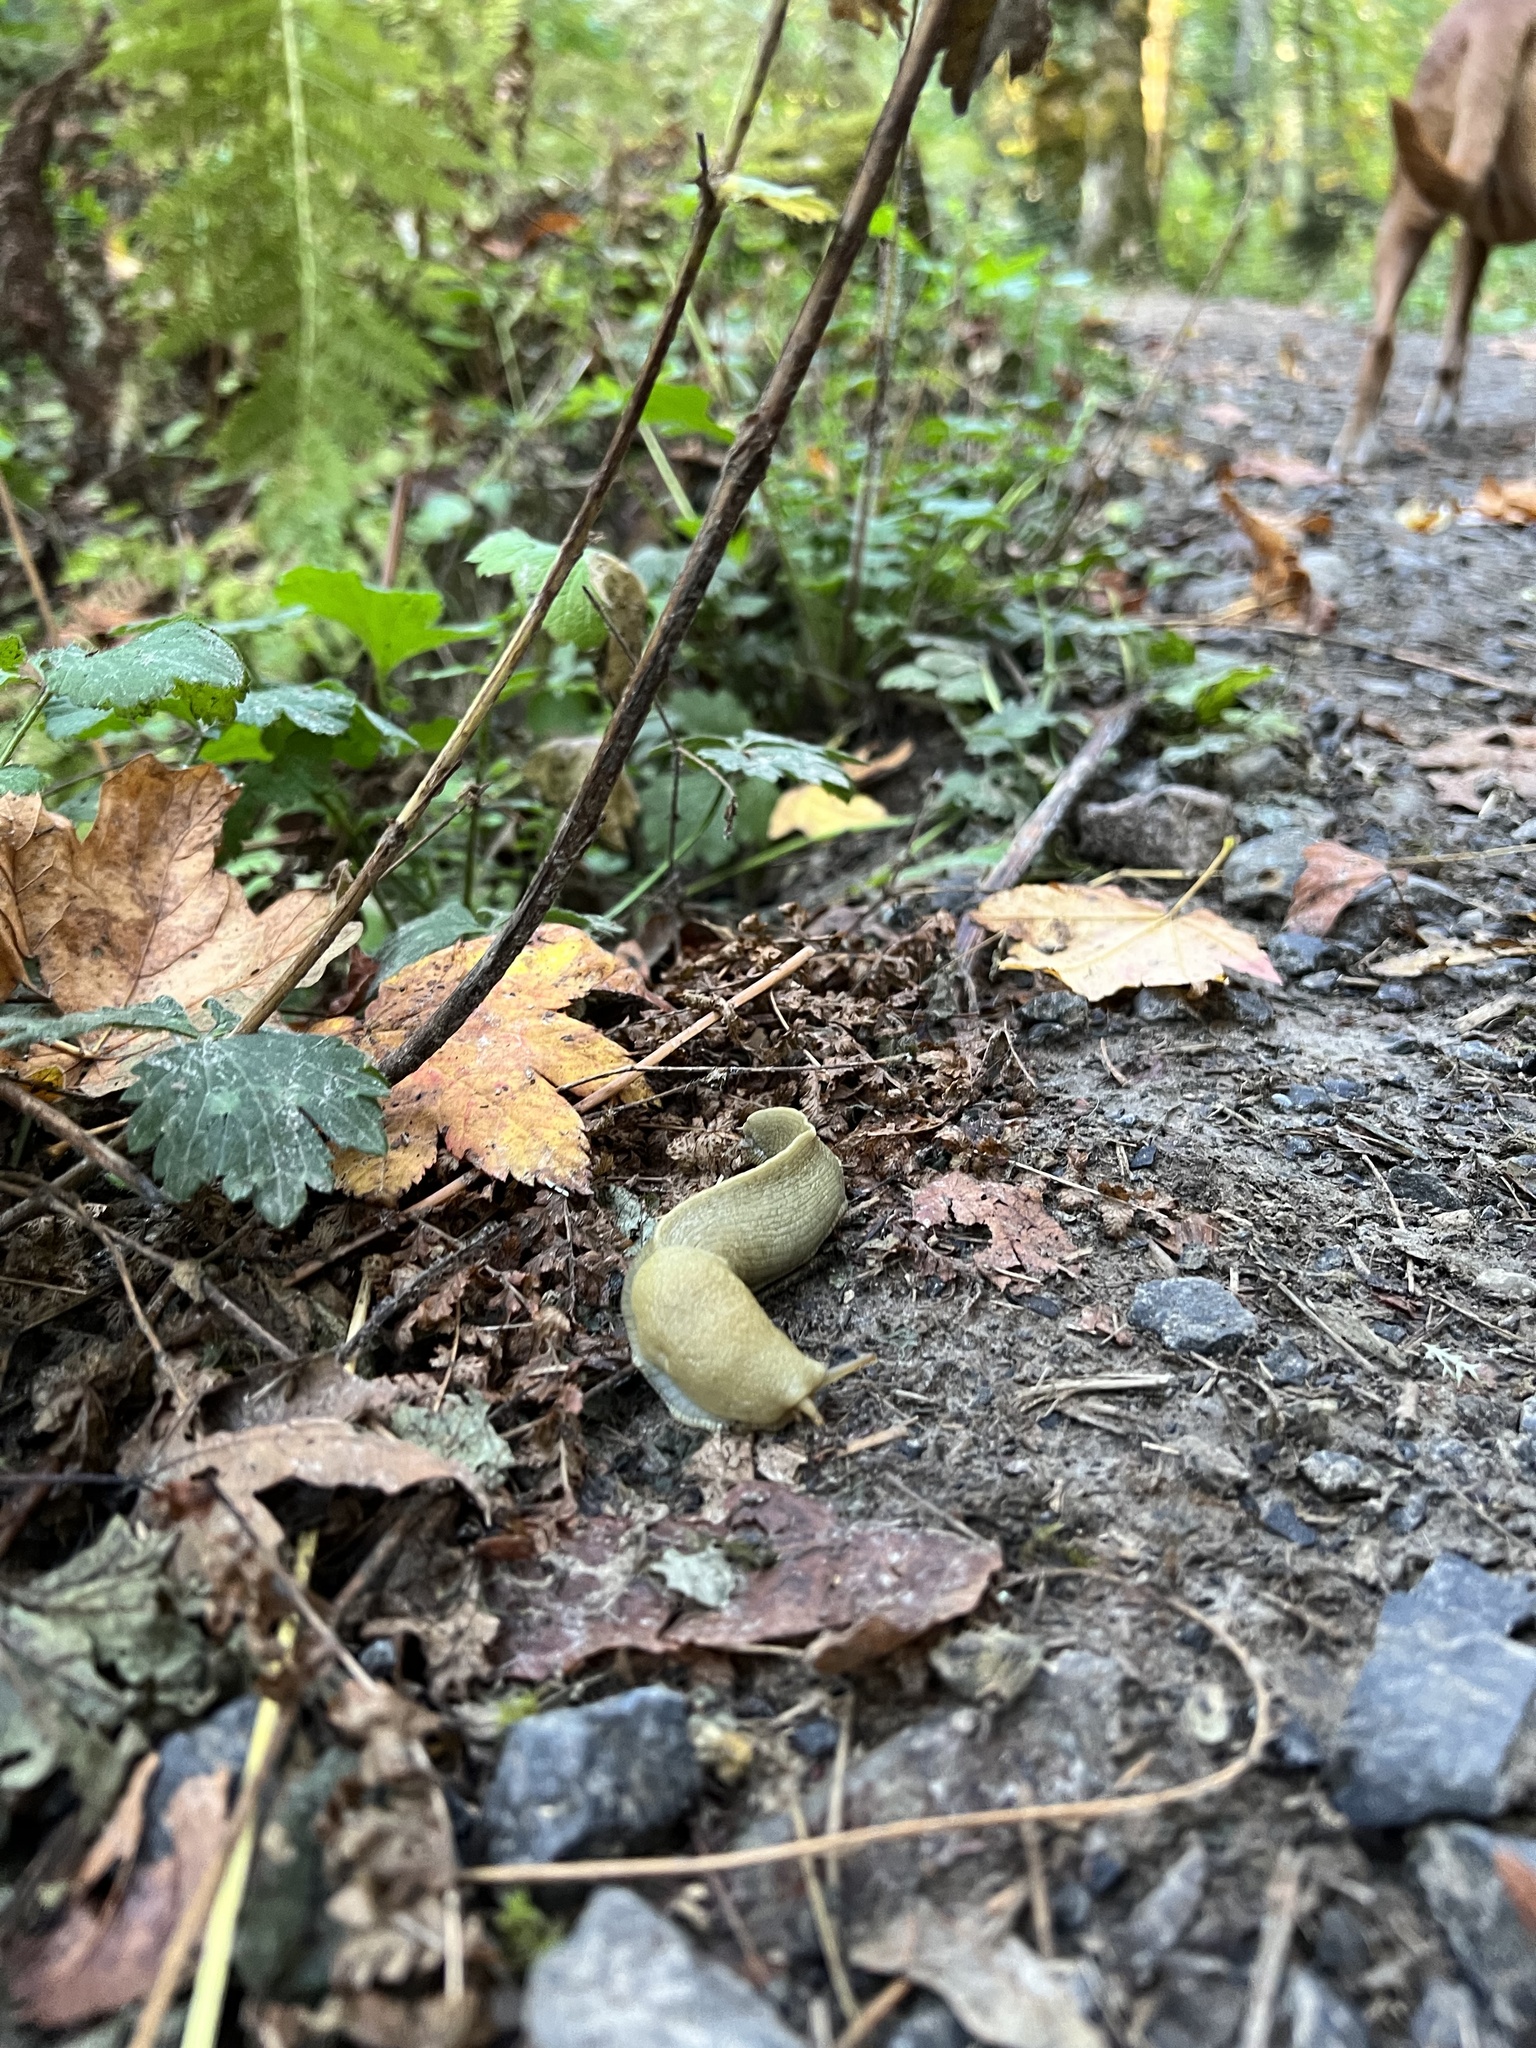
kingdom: Animalia
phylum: Mollusca
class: Gastropoda
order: Stylommatophora
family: Ariolimacidae
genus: Ariolimax
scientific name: Ariolimax columbianus
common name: Pacific banana slug
